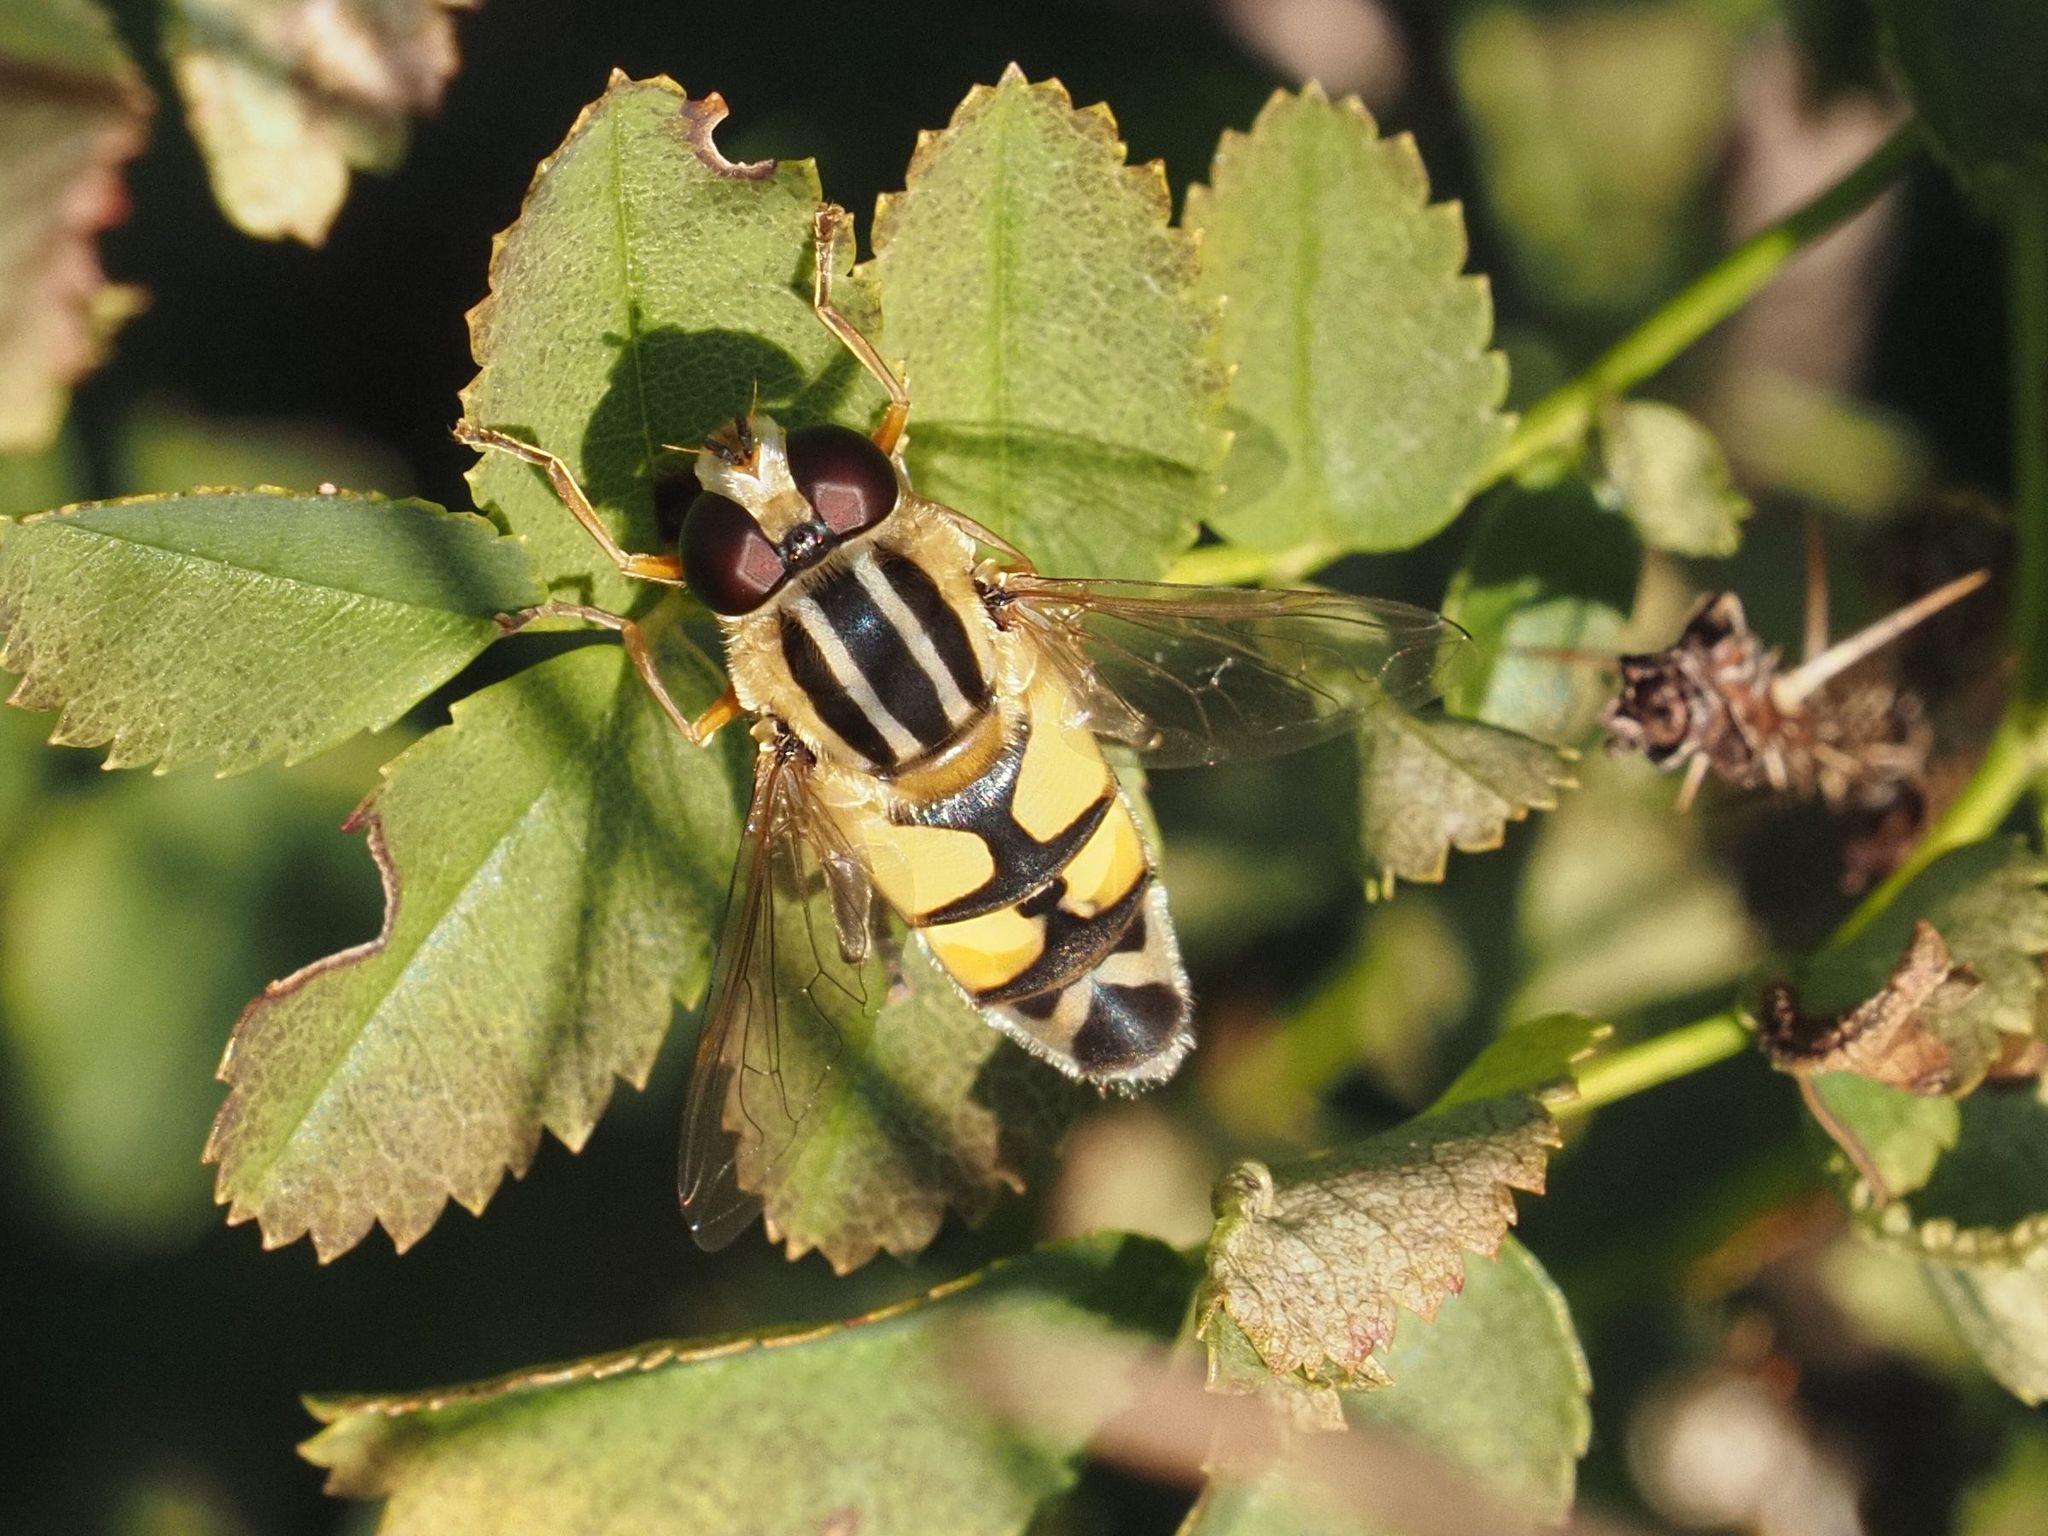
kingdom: Animalia
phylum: Arthropoda
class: Insecta
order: Diptera
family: Syrphidae
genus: Helophilus
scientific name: Helophilus trivittatus
